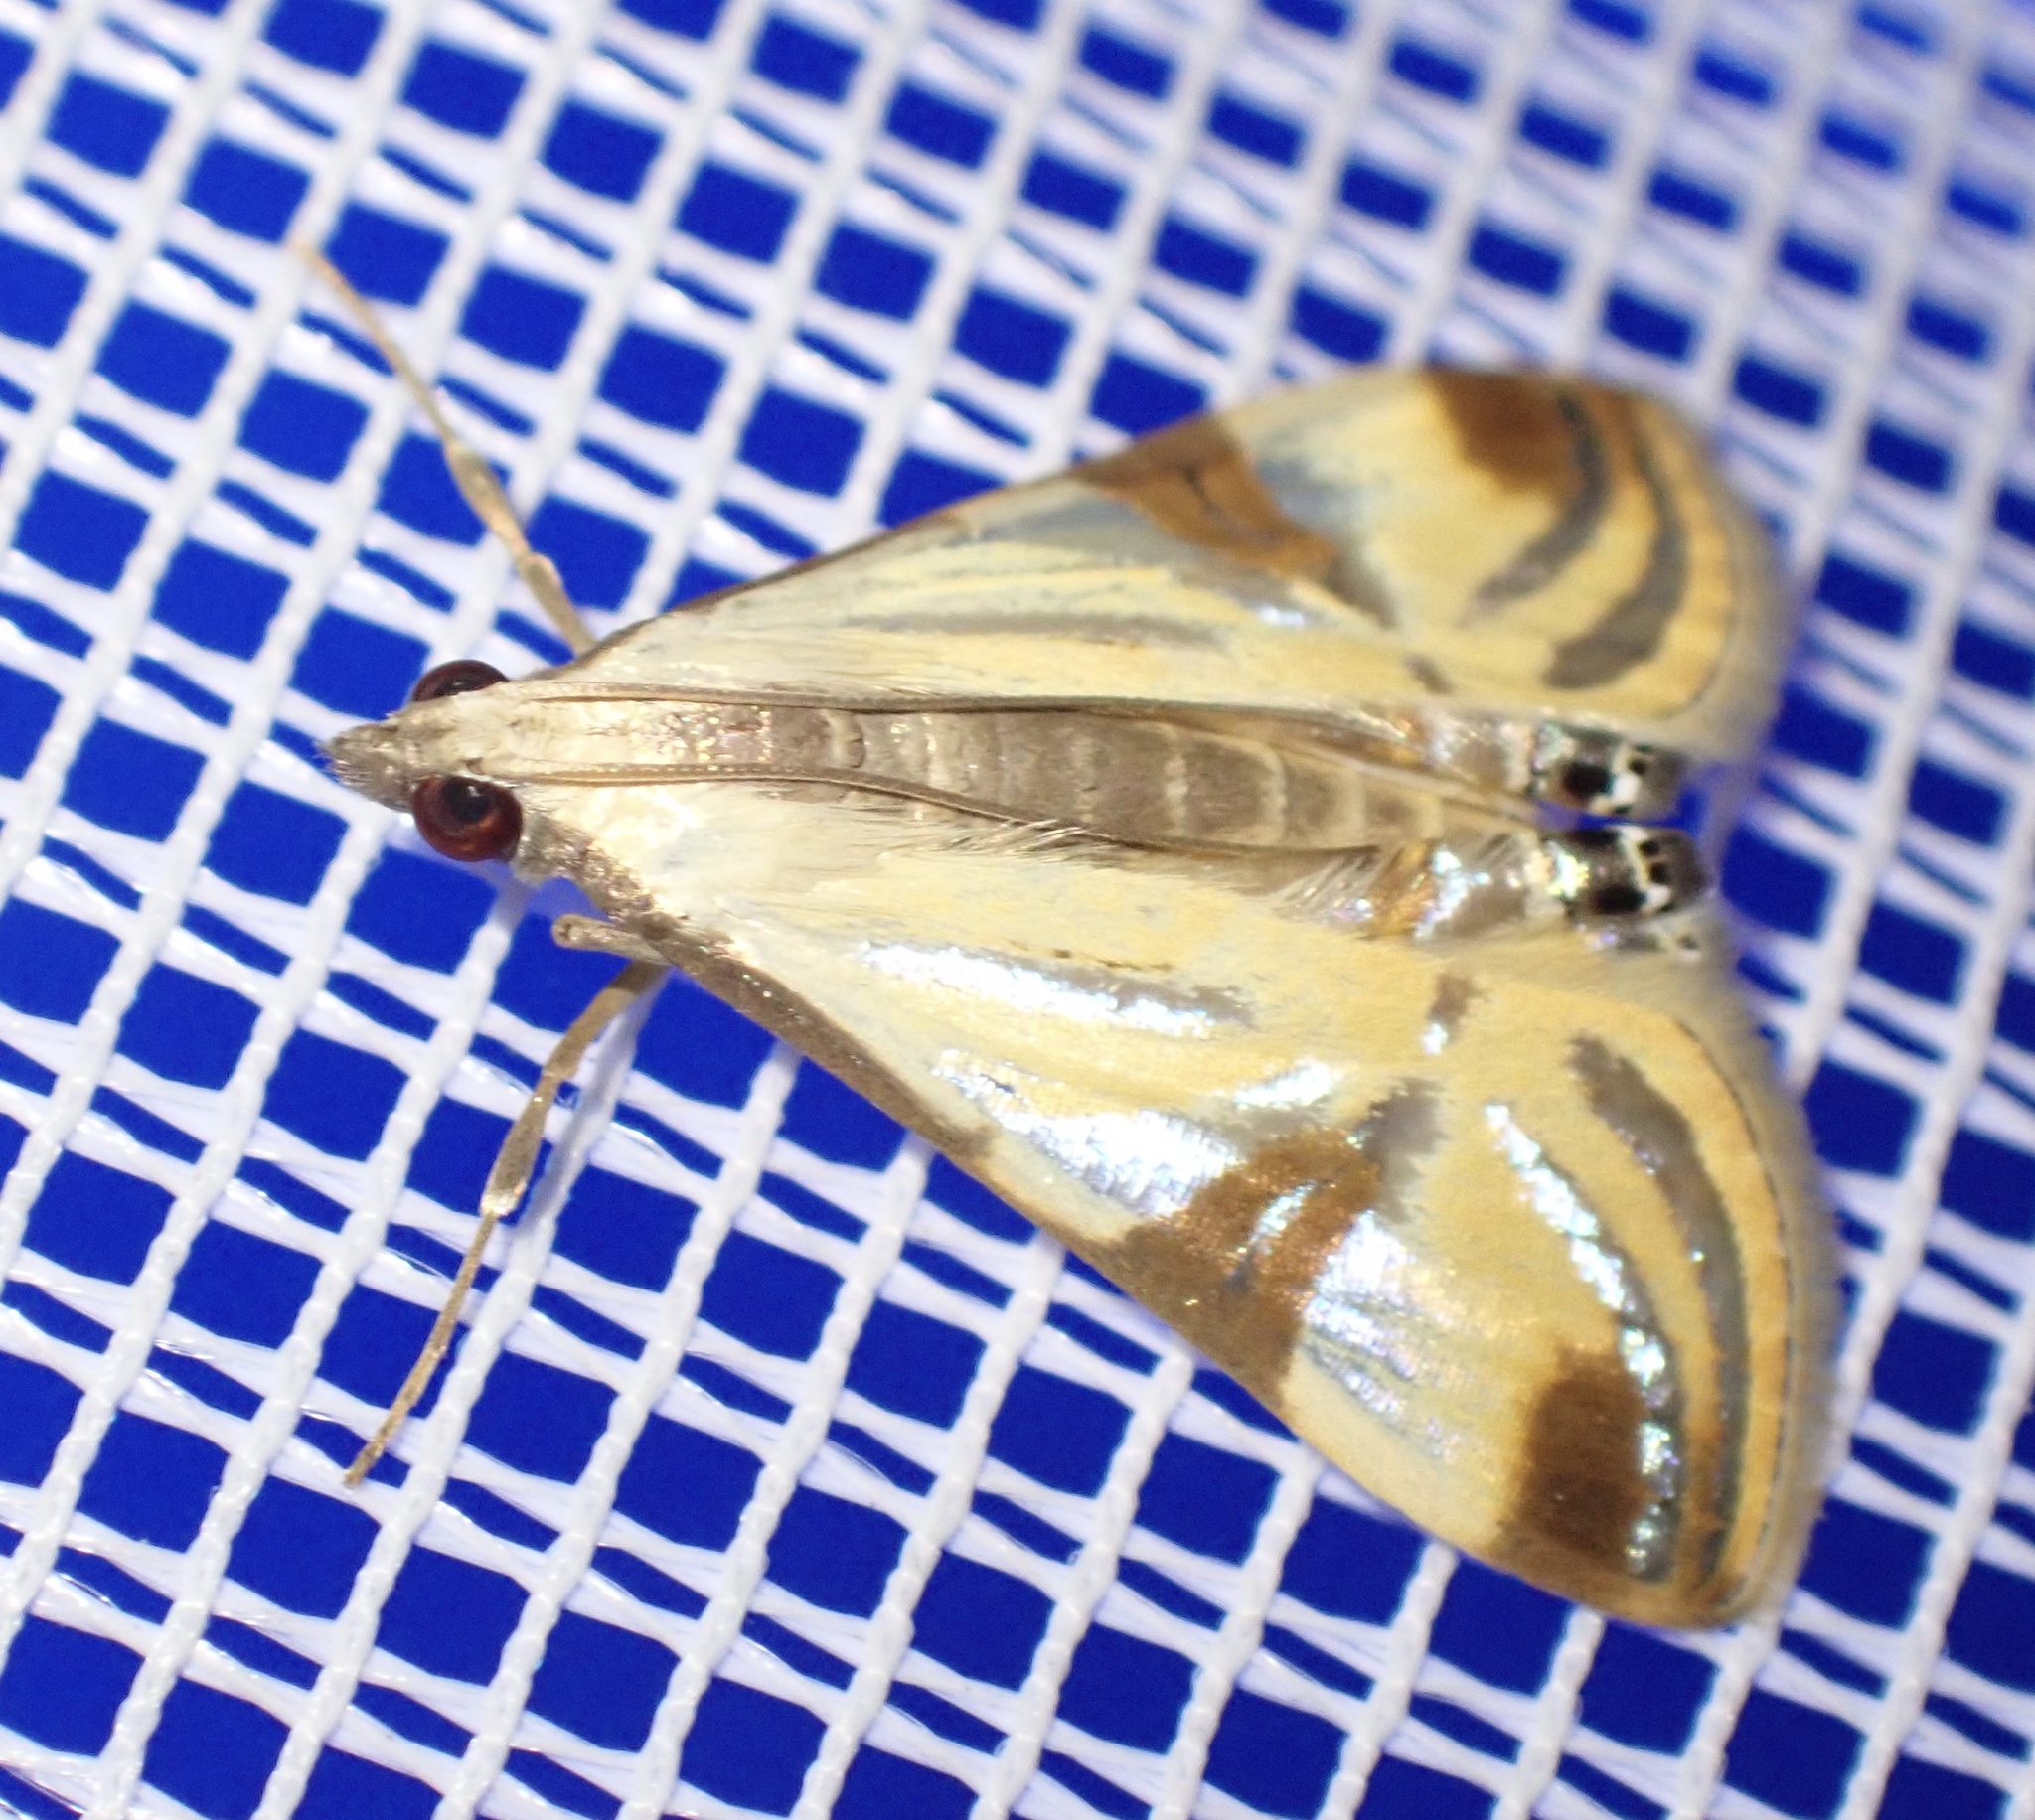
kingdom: Animalia
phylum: Arthropoda
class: Insecta
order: Lepidoptera
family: Crambidae
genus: Talanga
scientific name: Talanga tolumnialis
